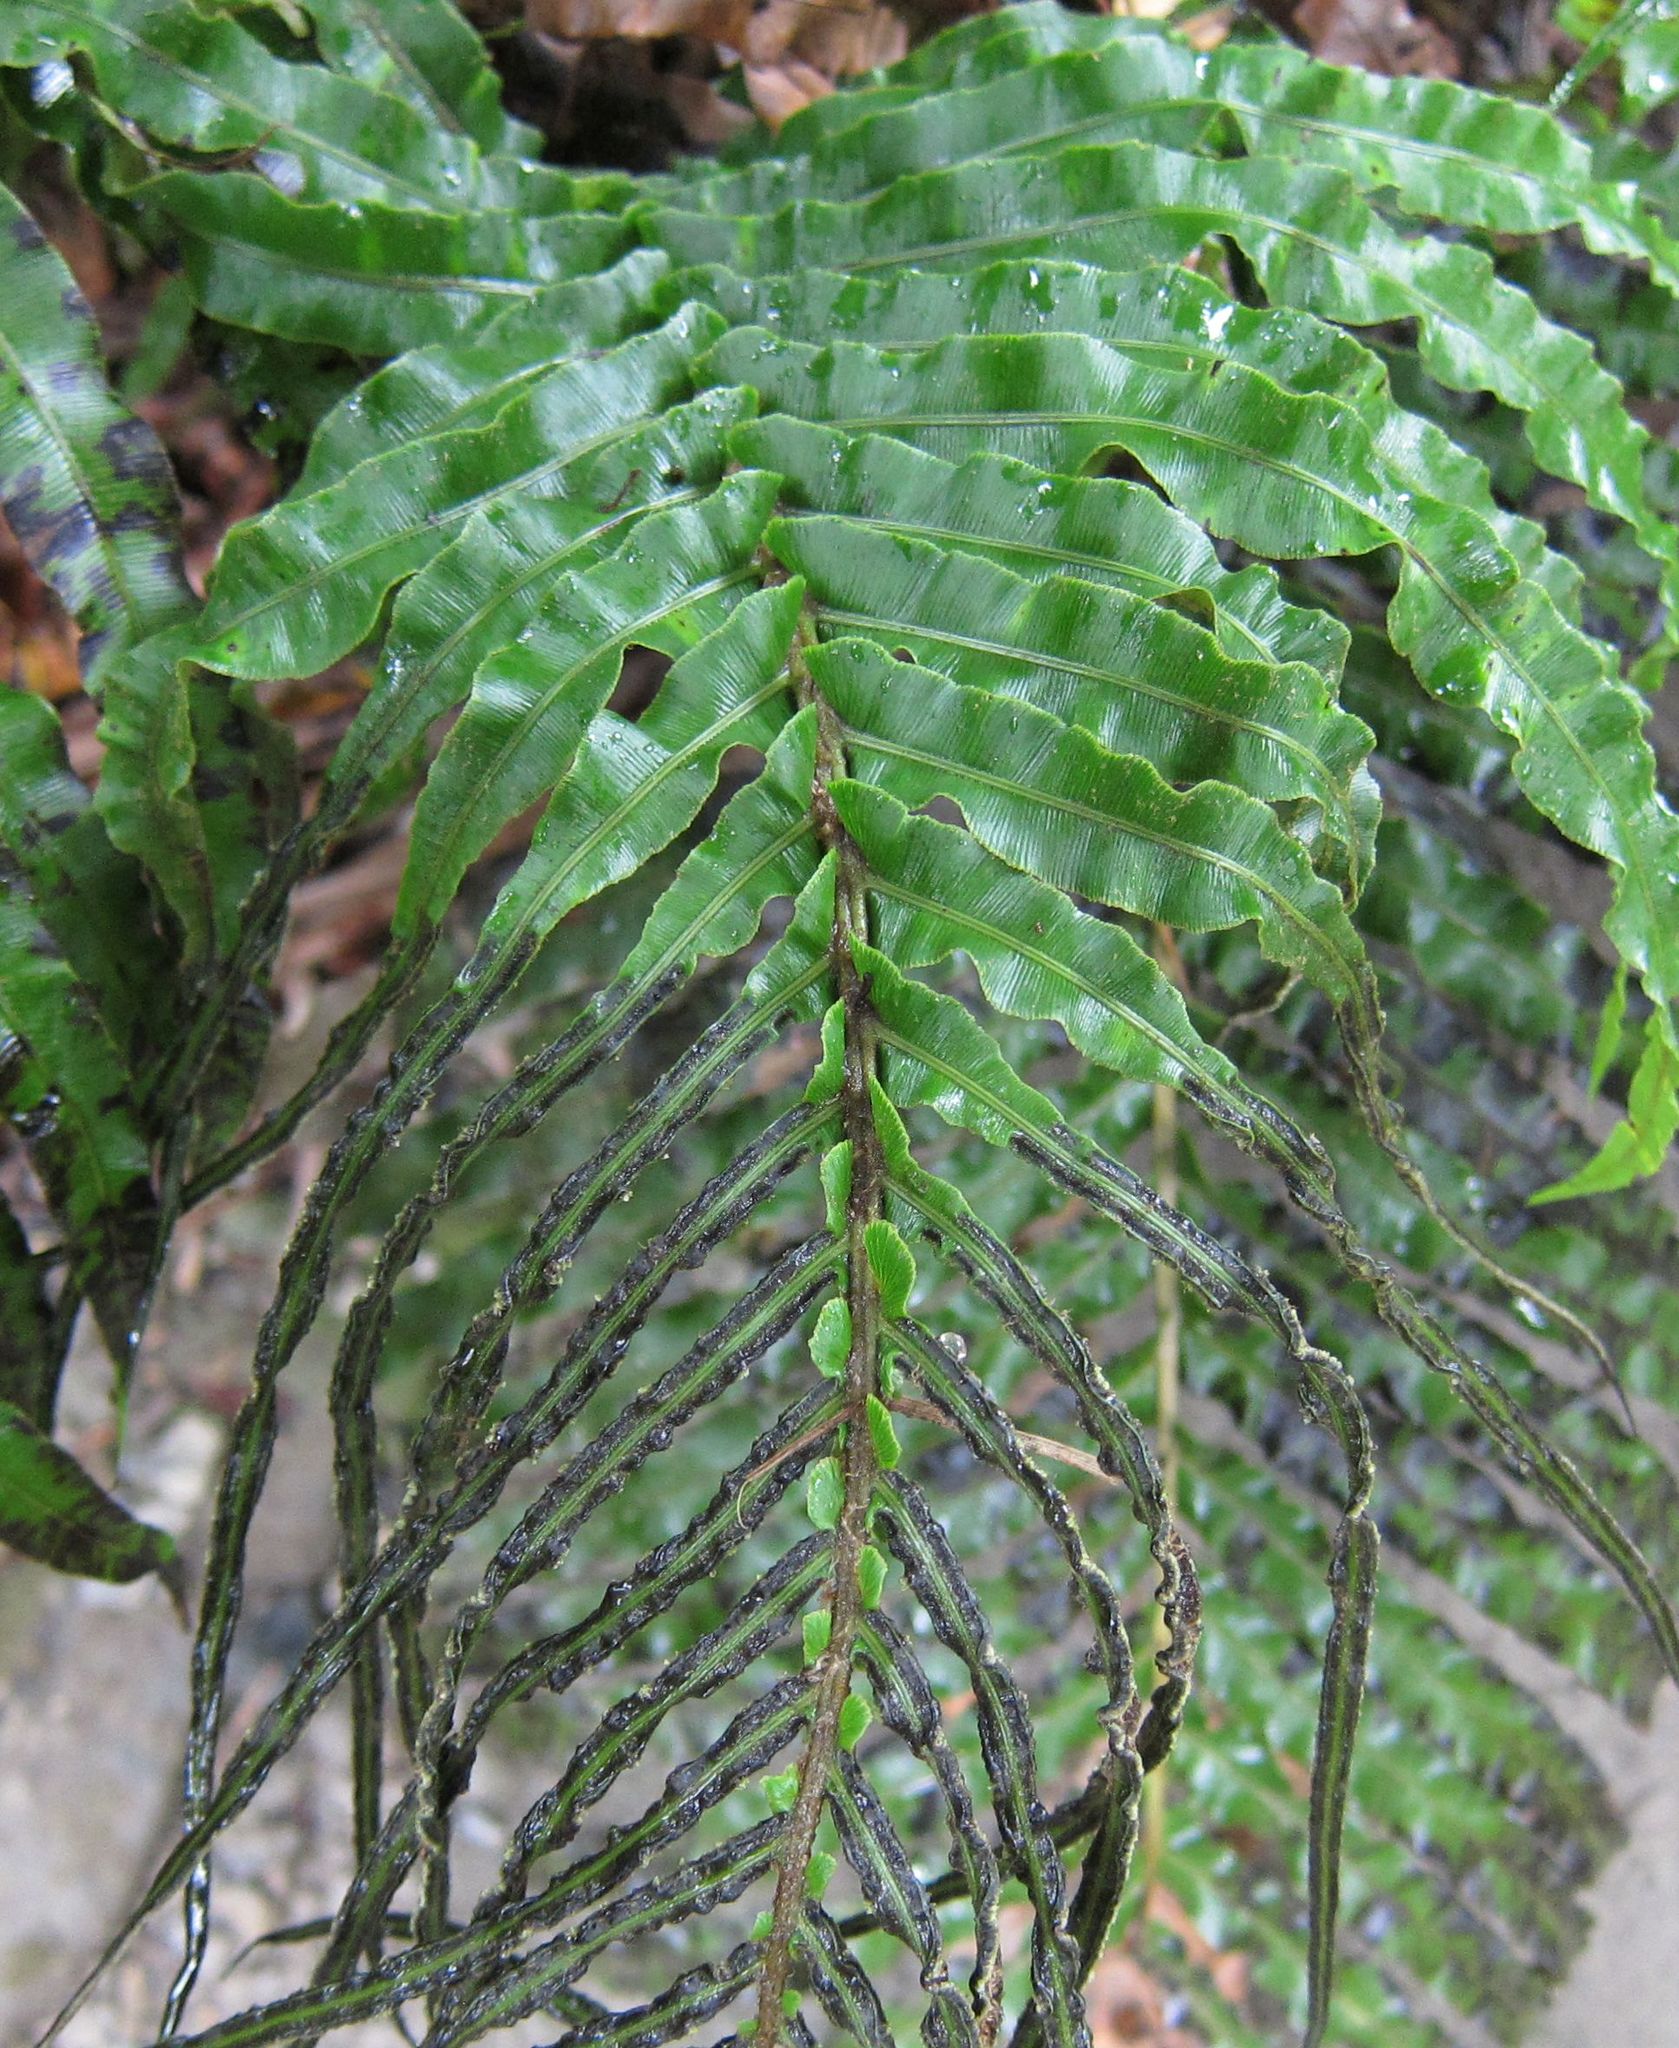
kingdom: Plantae
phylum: Tracheophyta
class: Polypodiopsida
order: Polypodiales
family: Blechnaceae
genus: Parablechnum
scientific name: Parablechnum novae-zelandiae
